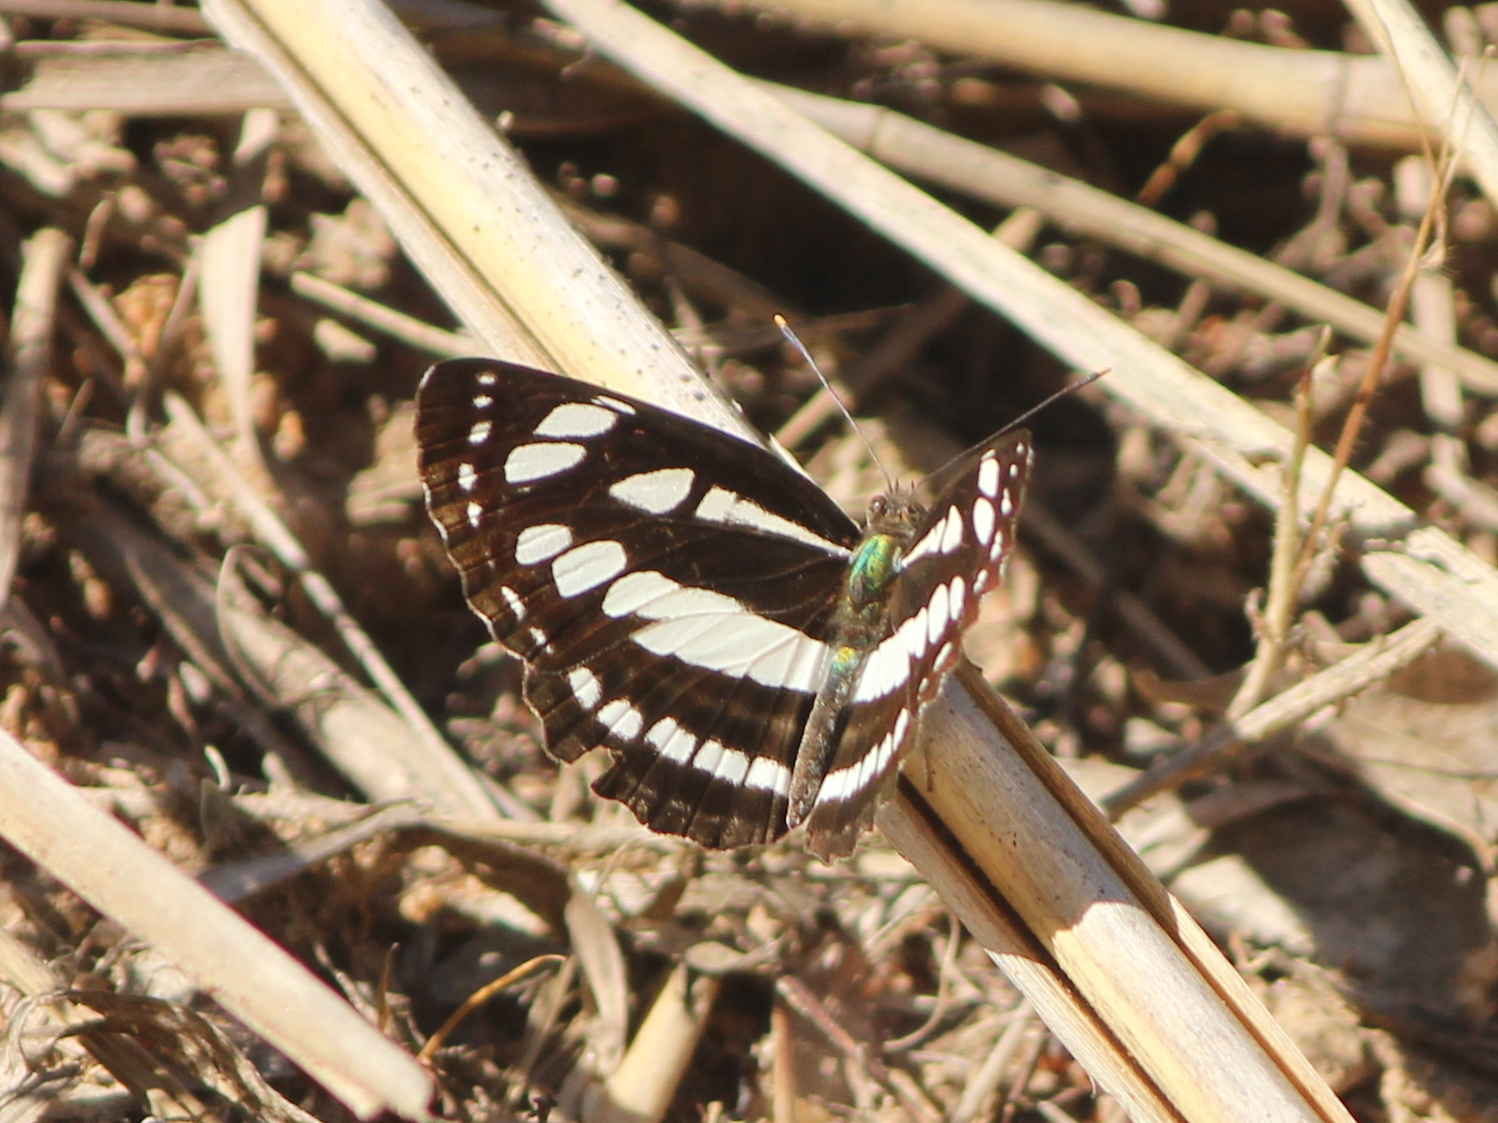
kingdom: Animalia
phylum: Arthropoda
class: Insecta
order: Lepidoptera
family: Nymphalidae
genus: Neptis
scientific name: Neptis hylas
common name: Common sailer
